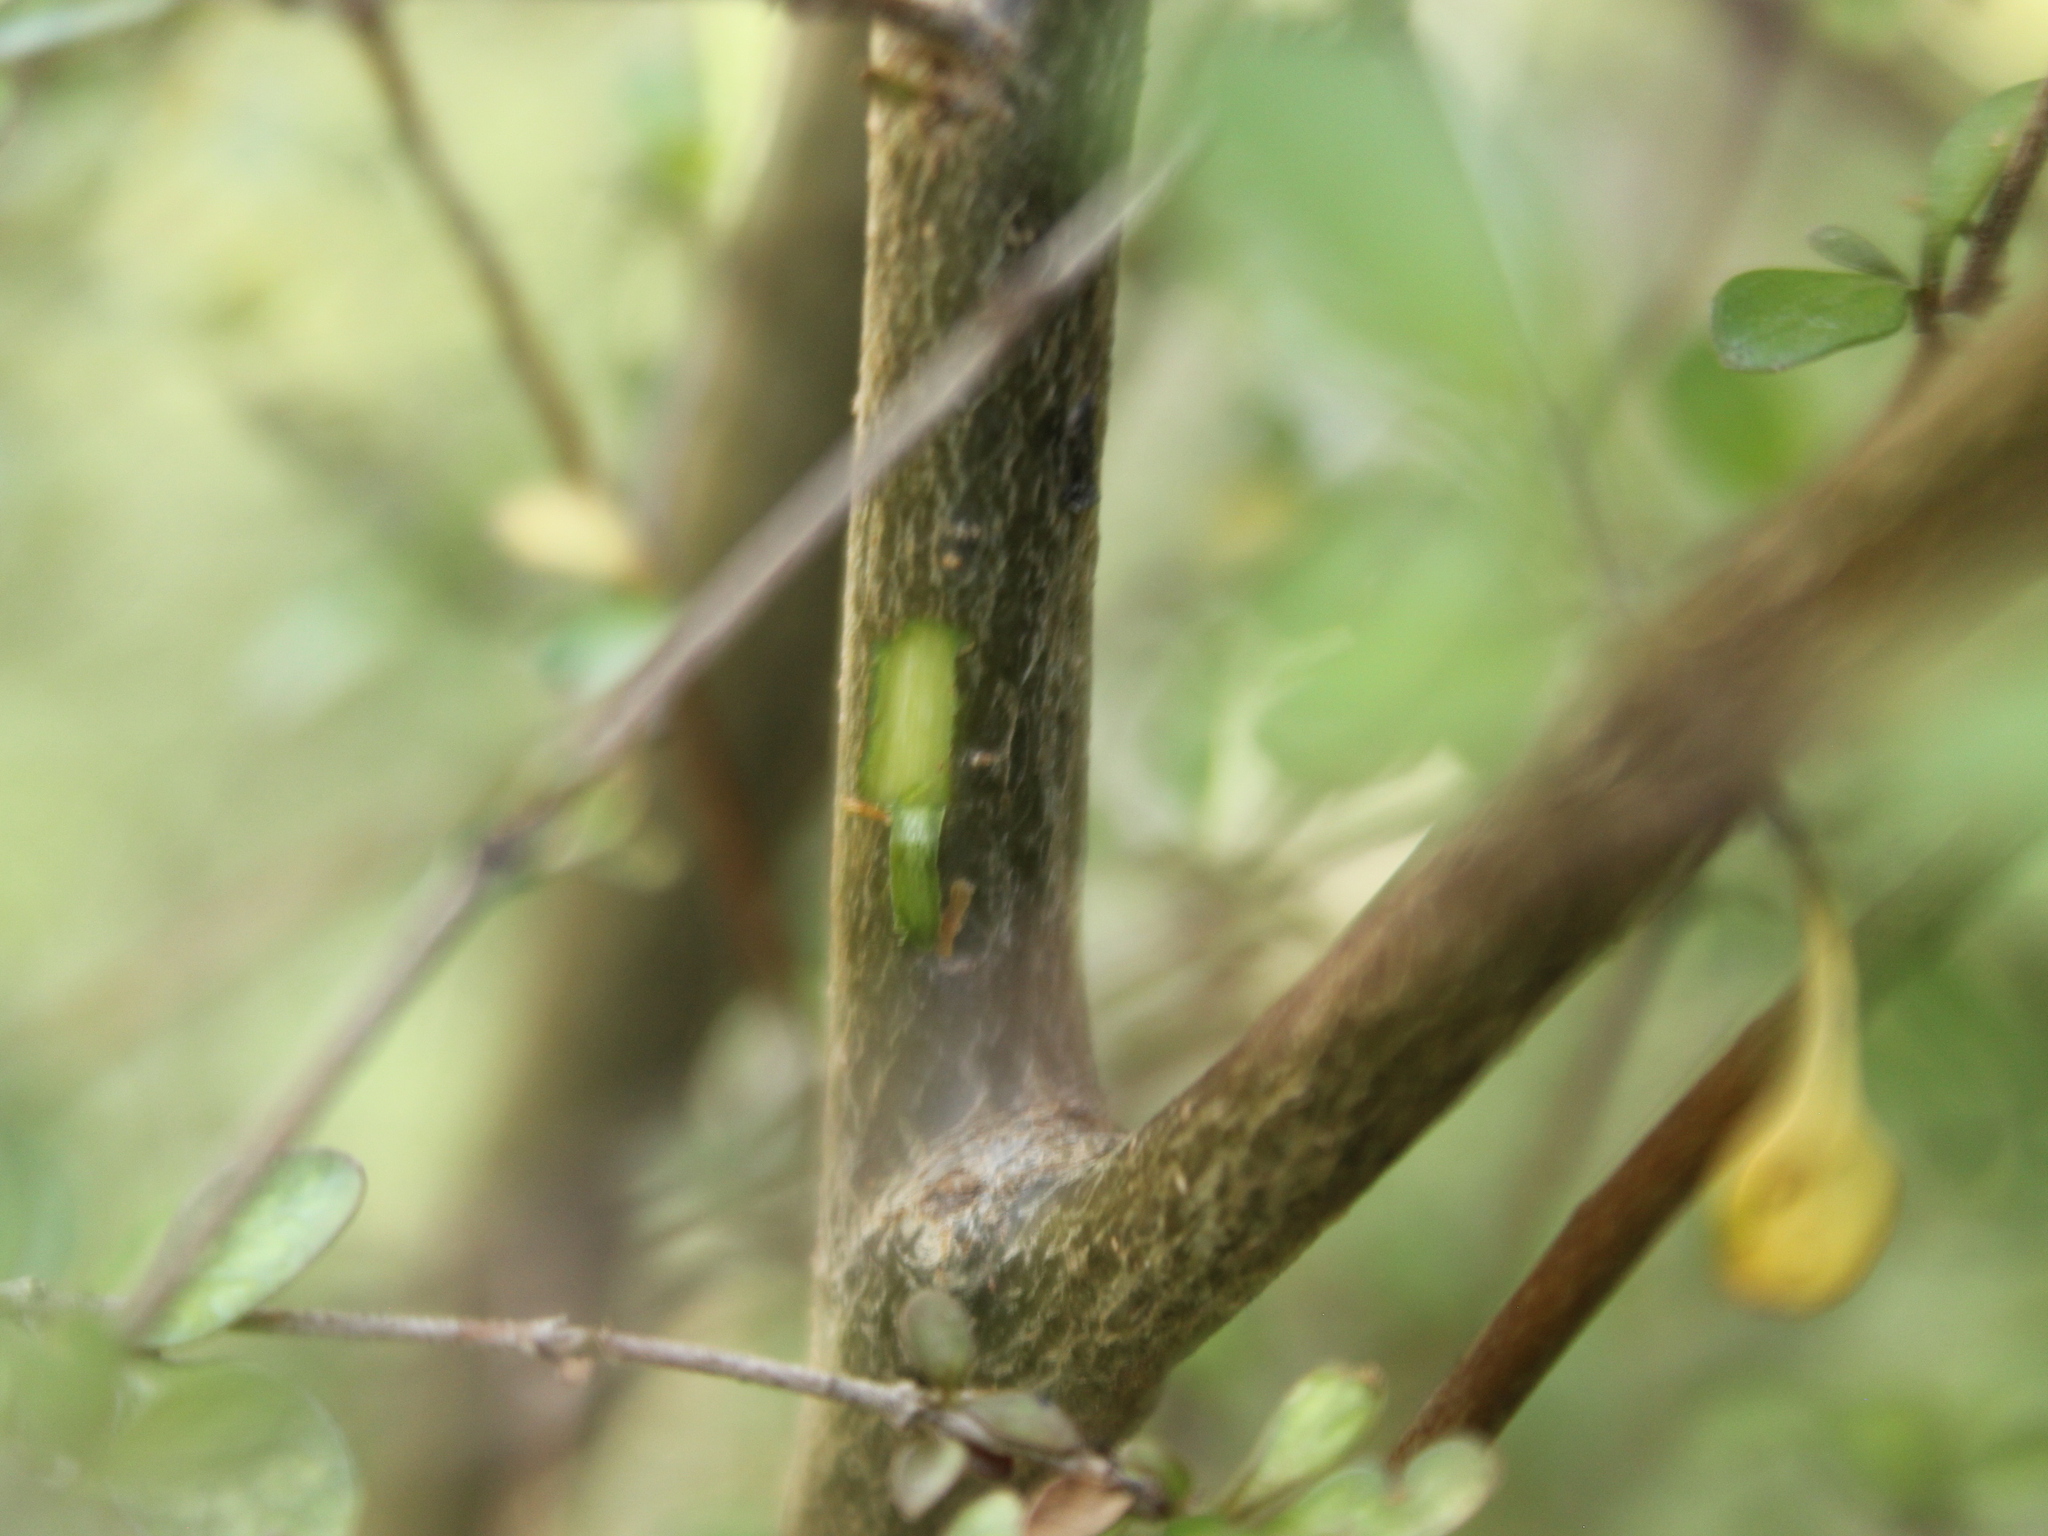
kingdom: Plantae
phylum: Tracheophyta
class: Magnoliopsida
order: Gentianales
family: Rubiaceae
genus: Coprosma
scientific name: Coprosma rigida
